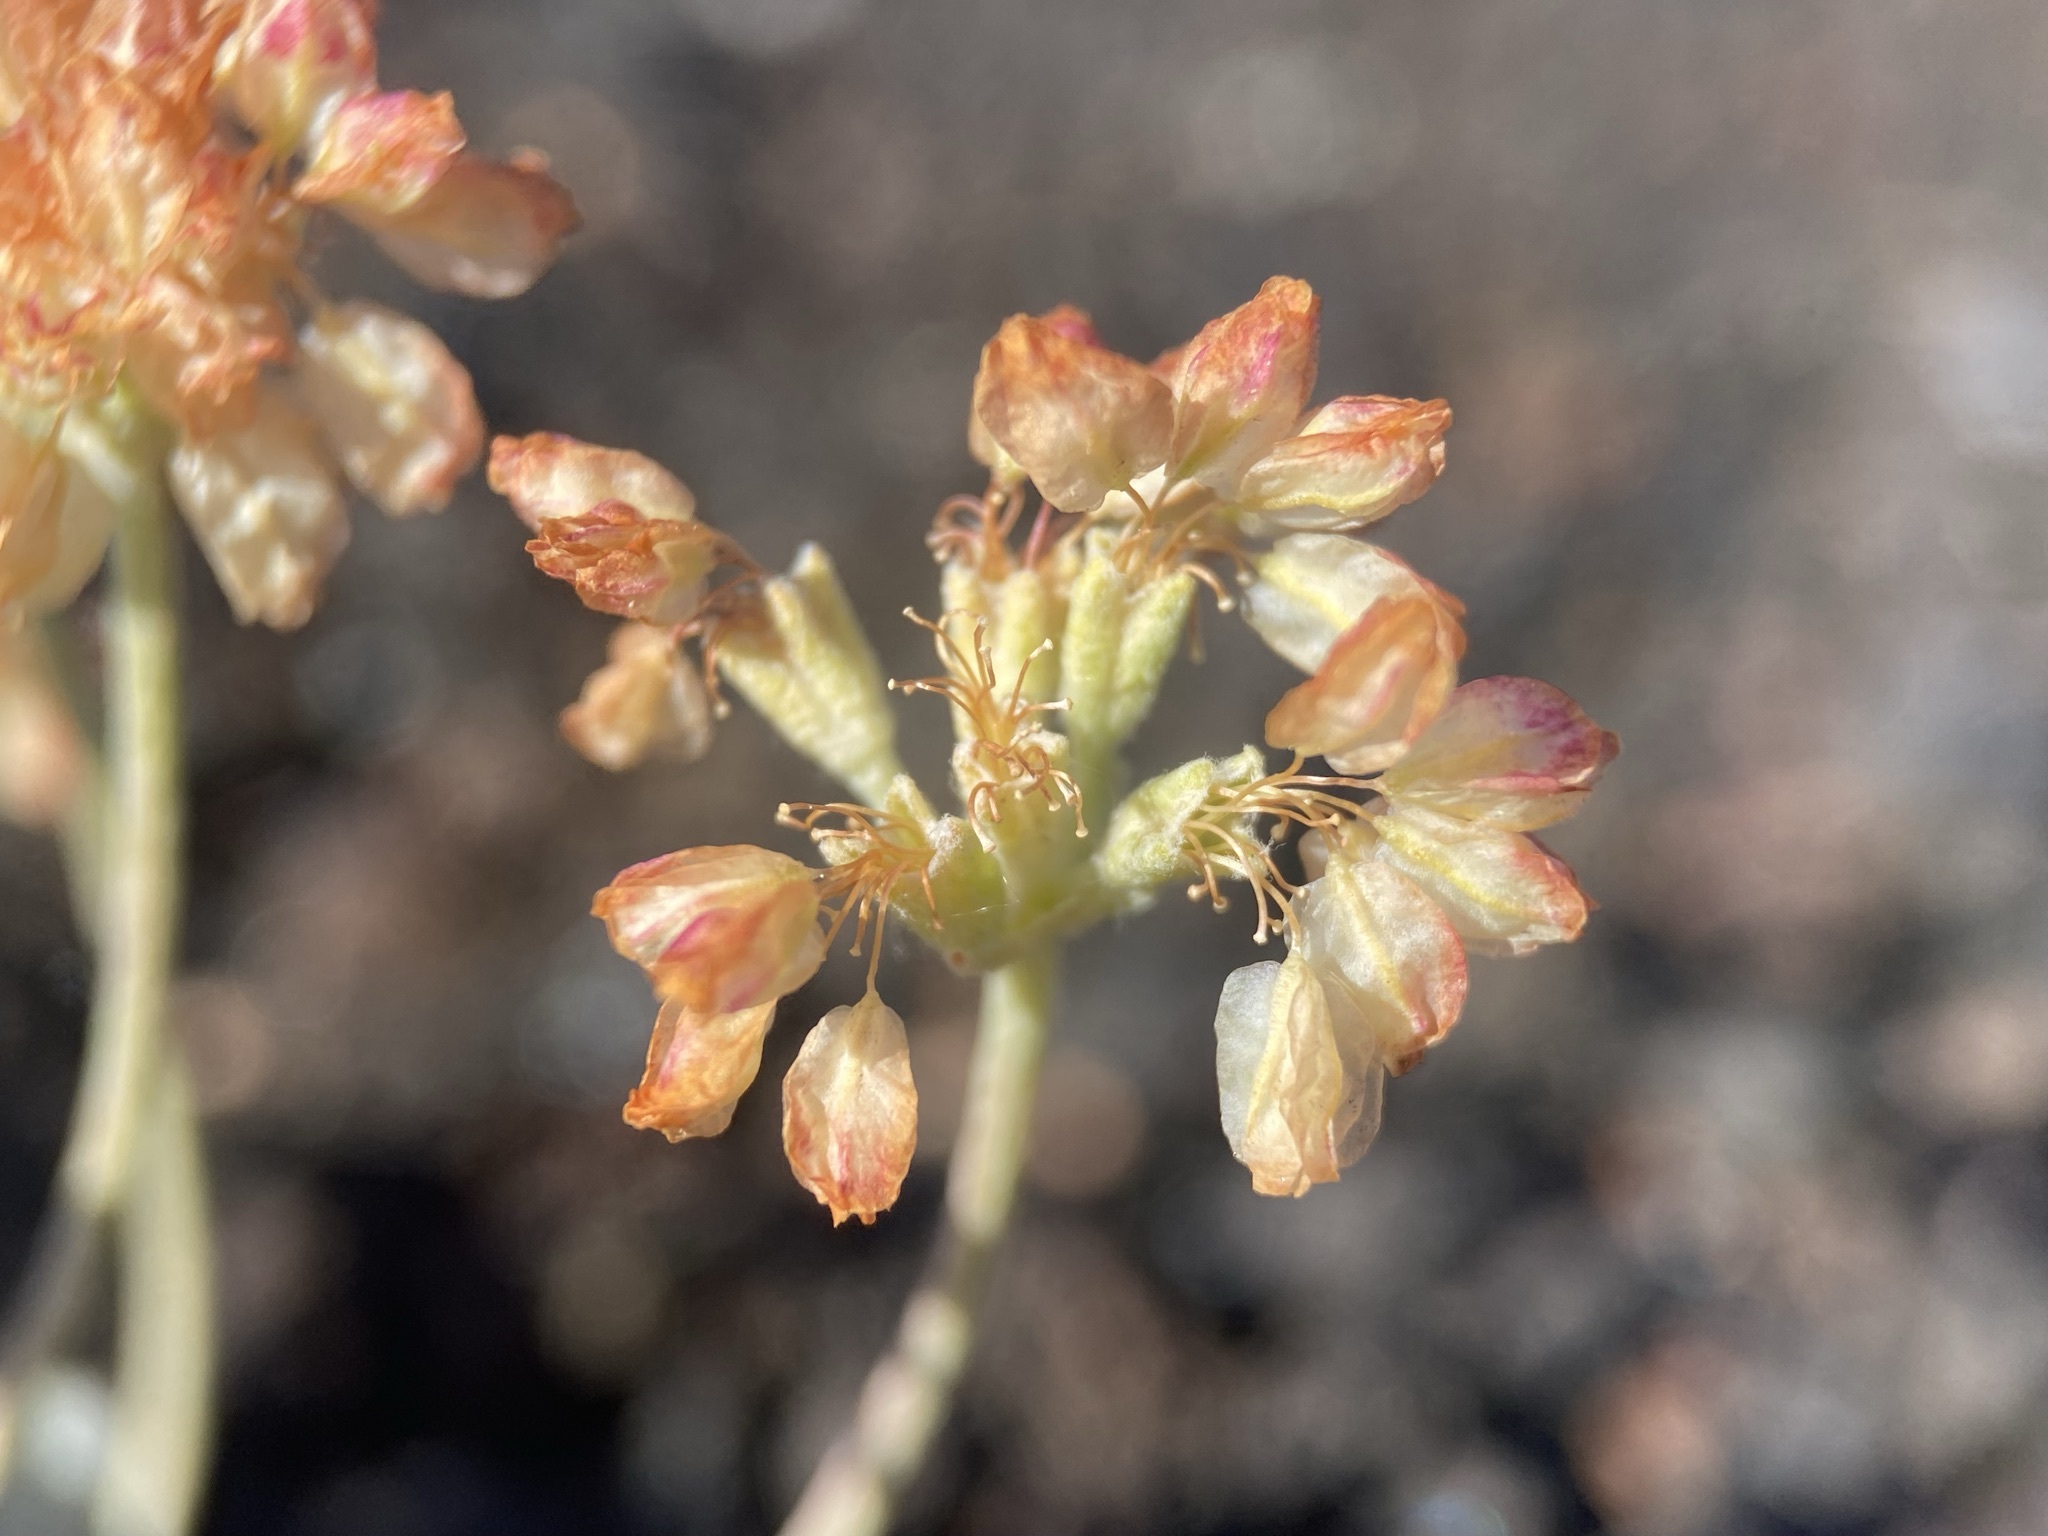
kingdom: Plantae
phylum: Tracheophyta
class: Magnoliopsida
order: Caryophyllales
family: Polygonaceae
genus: Eriogonum
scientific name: Eriogonum ovalifolium
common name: Cushion buckwheat
